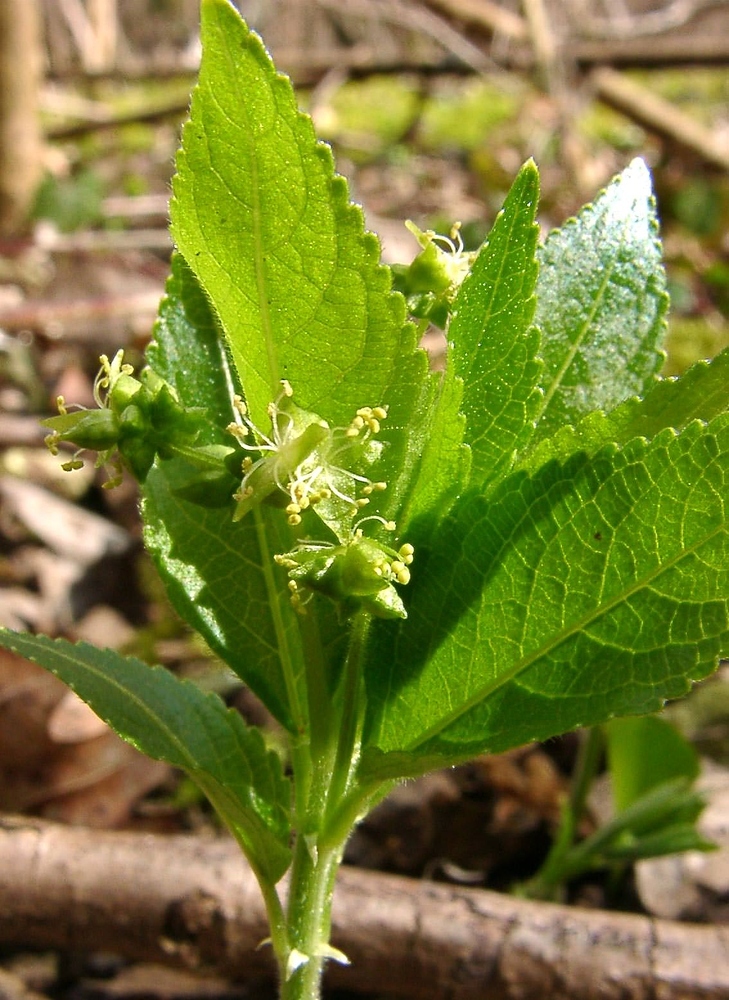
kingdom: Plantae
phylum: Tracheophyta
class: Magnoliopsida
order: Malpighiales
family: Euphorbiaceae
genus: Mercurialis
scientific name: Mercurialis perennis
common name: Dog mercury
